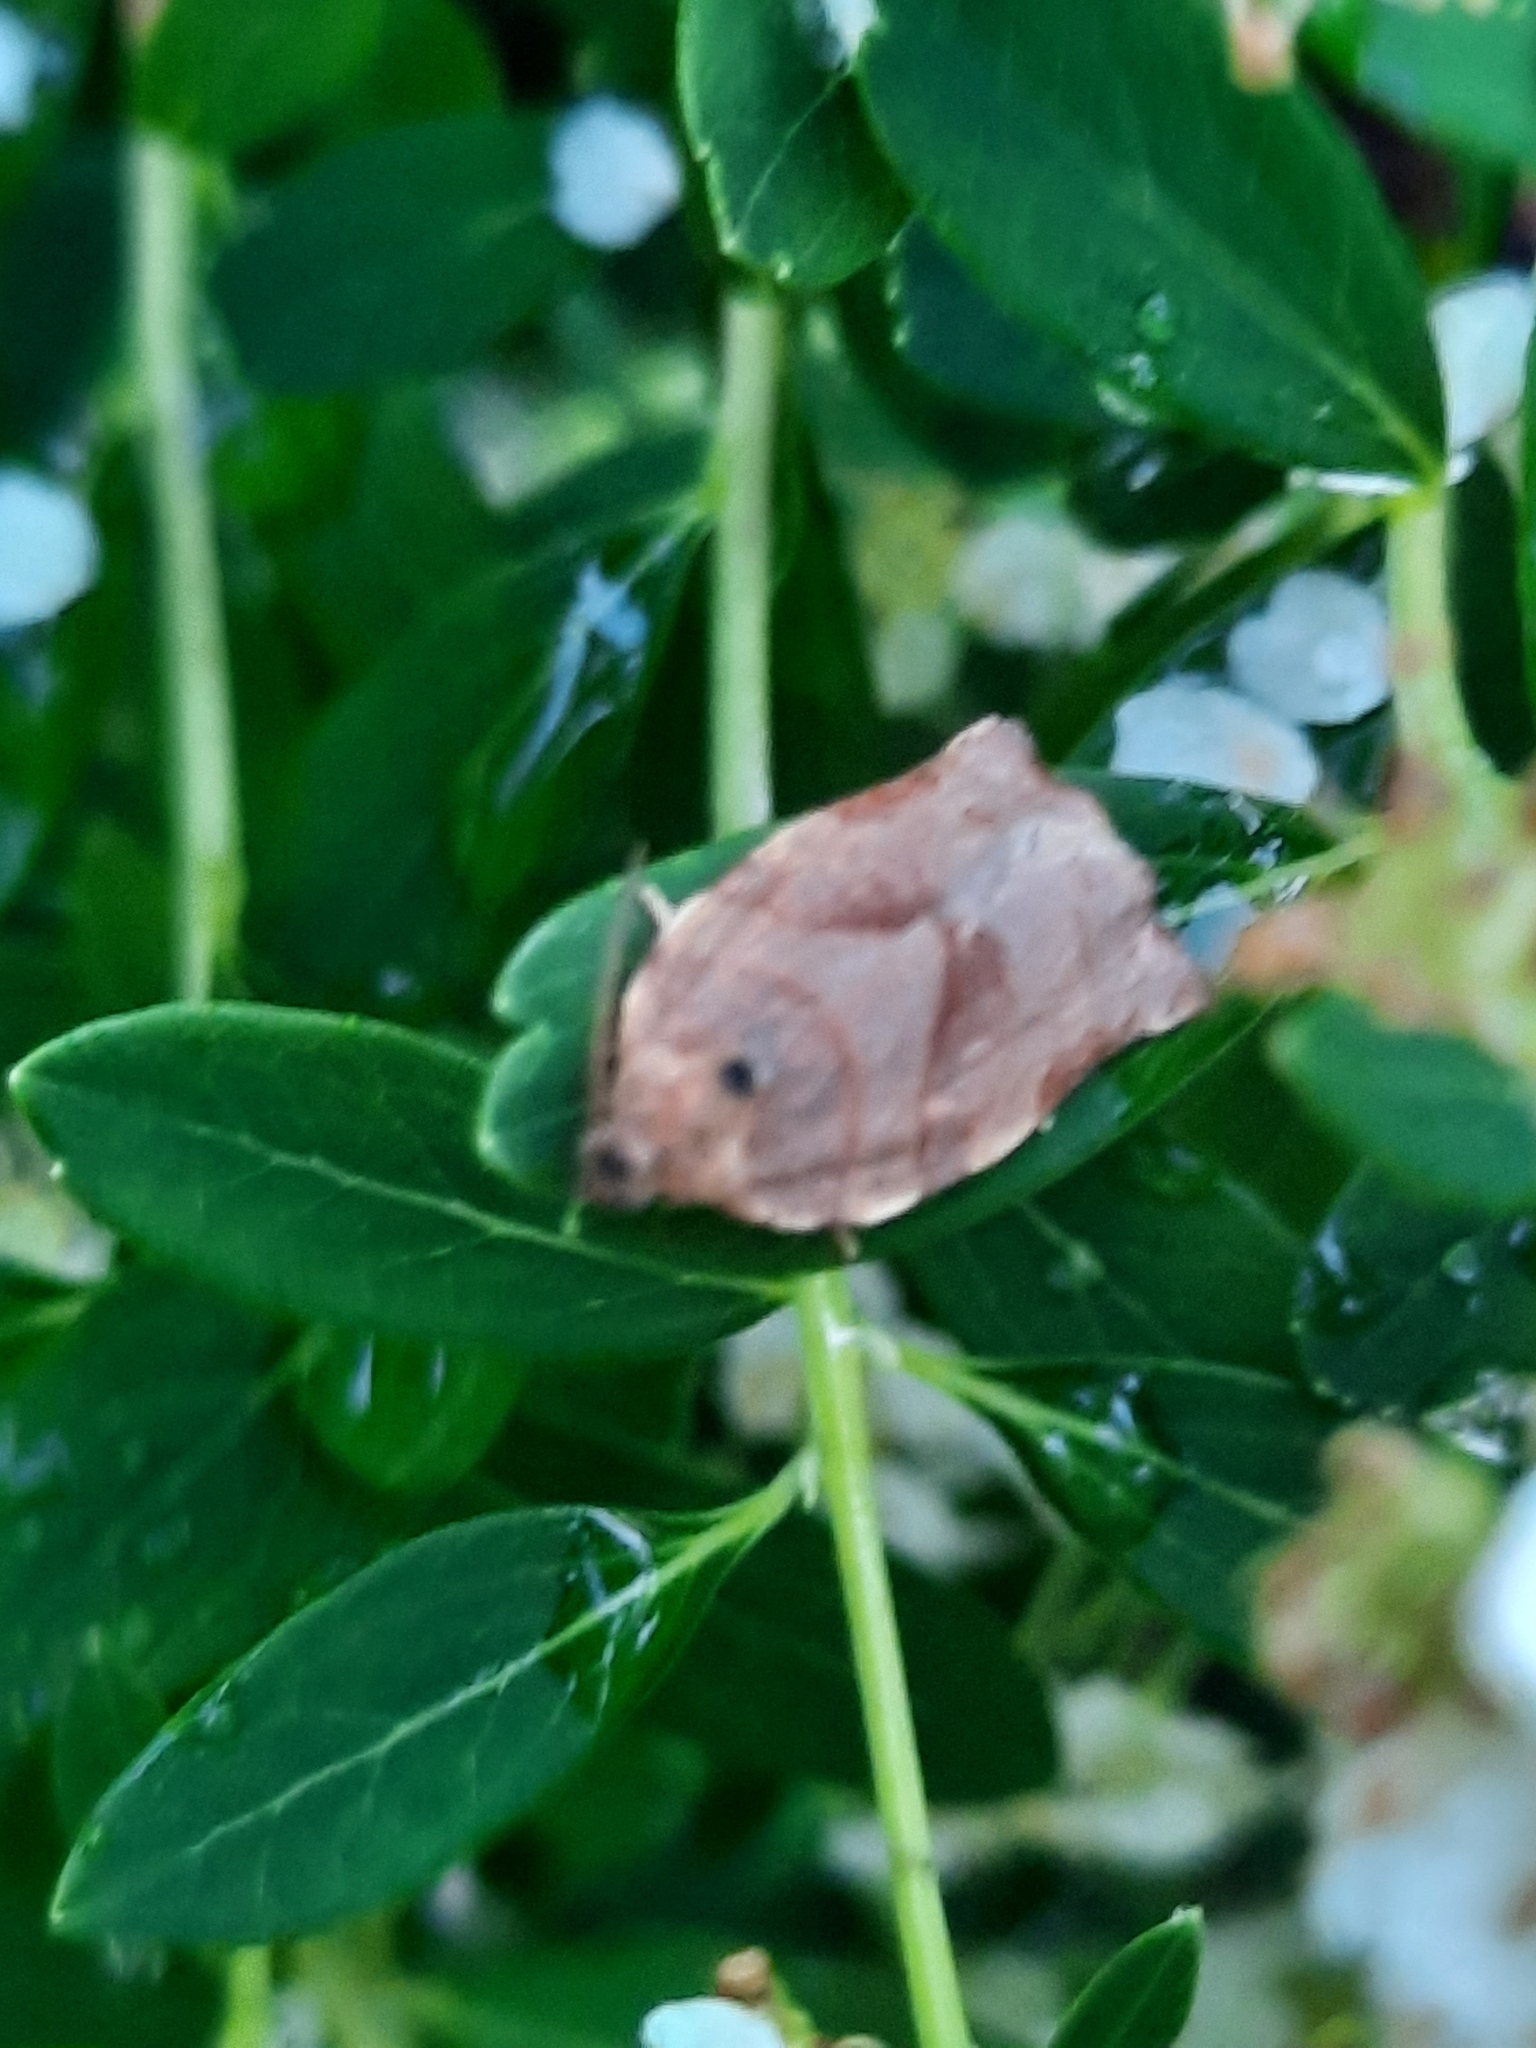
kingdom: Animalia
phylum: Arthropoda
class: Insecta
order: Lepidoptera
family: Tortricidae
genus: Choristoneura
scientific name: Choristoneura rosaceana
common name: Oblique-banded leafroller moth
